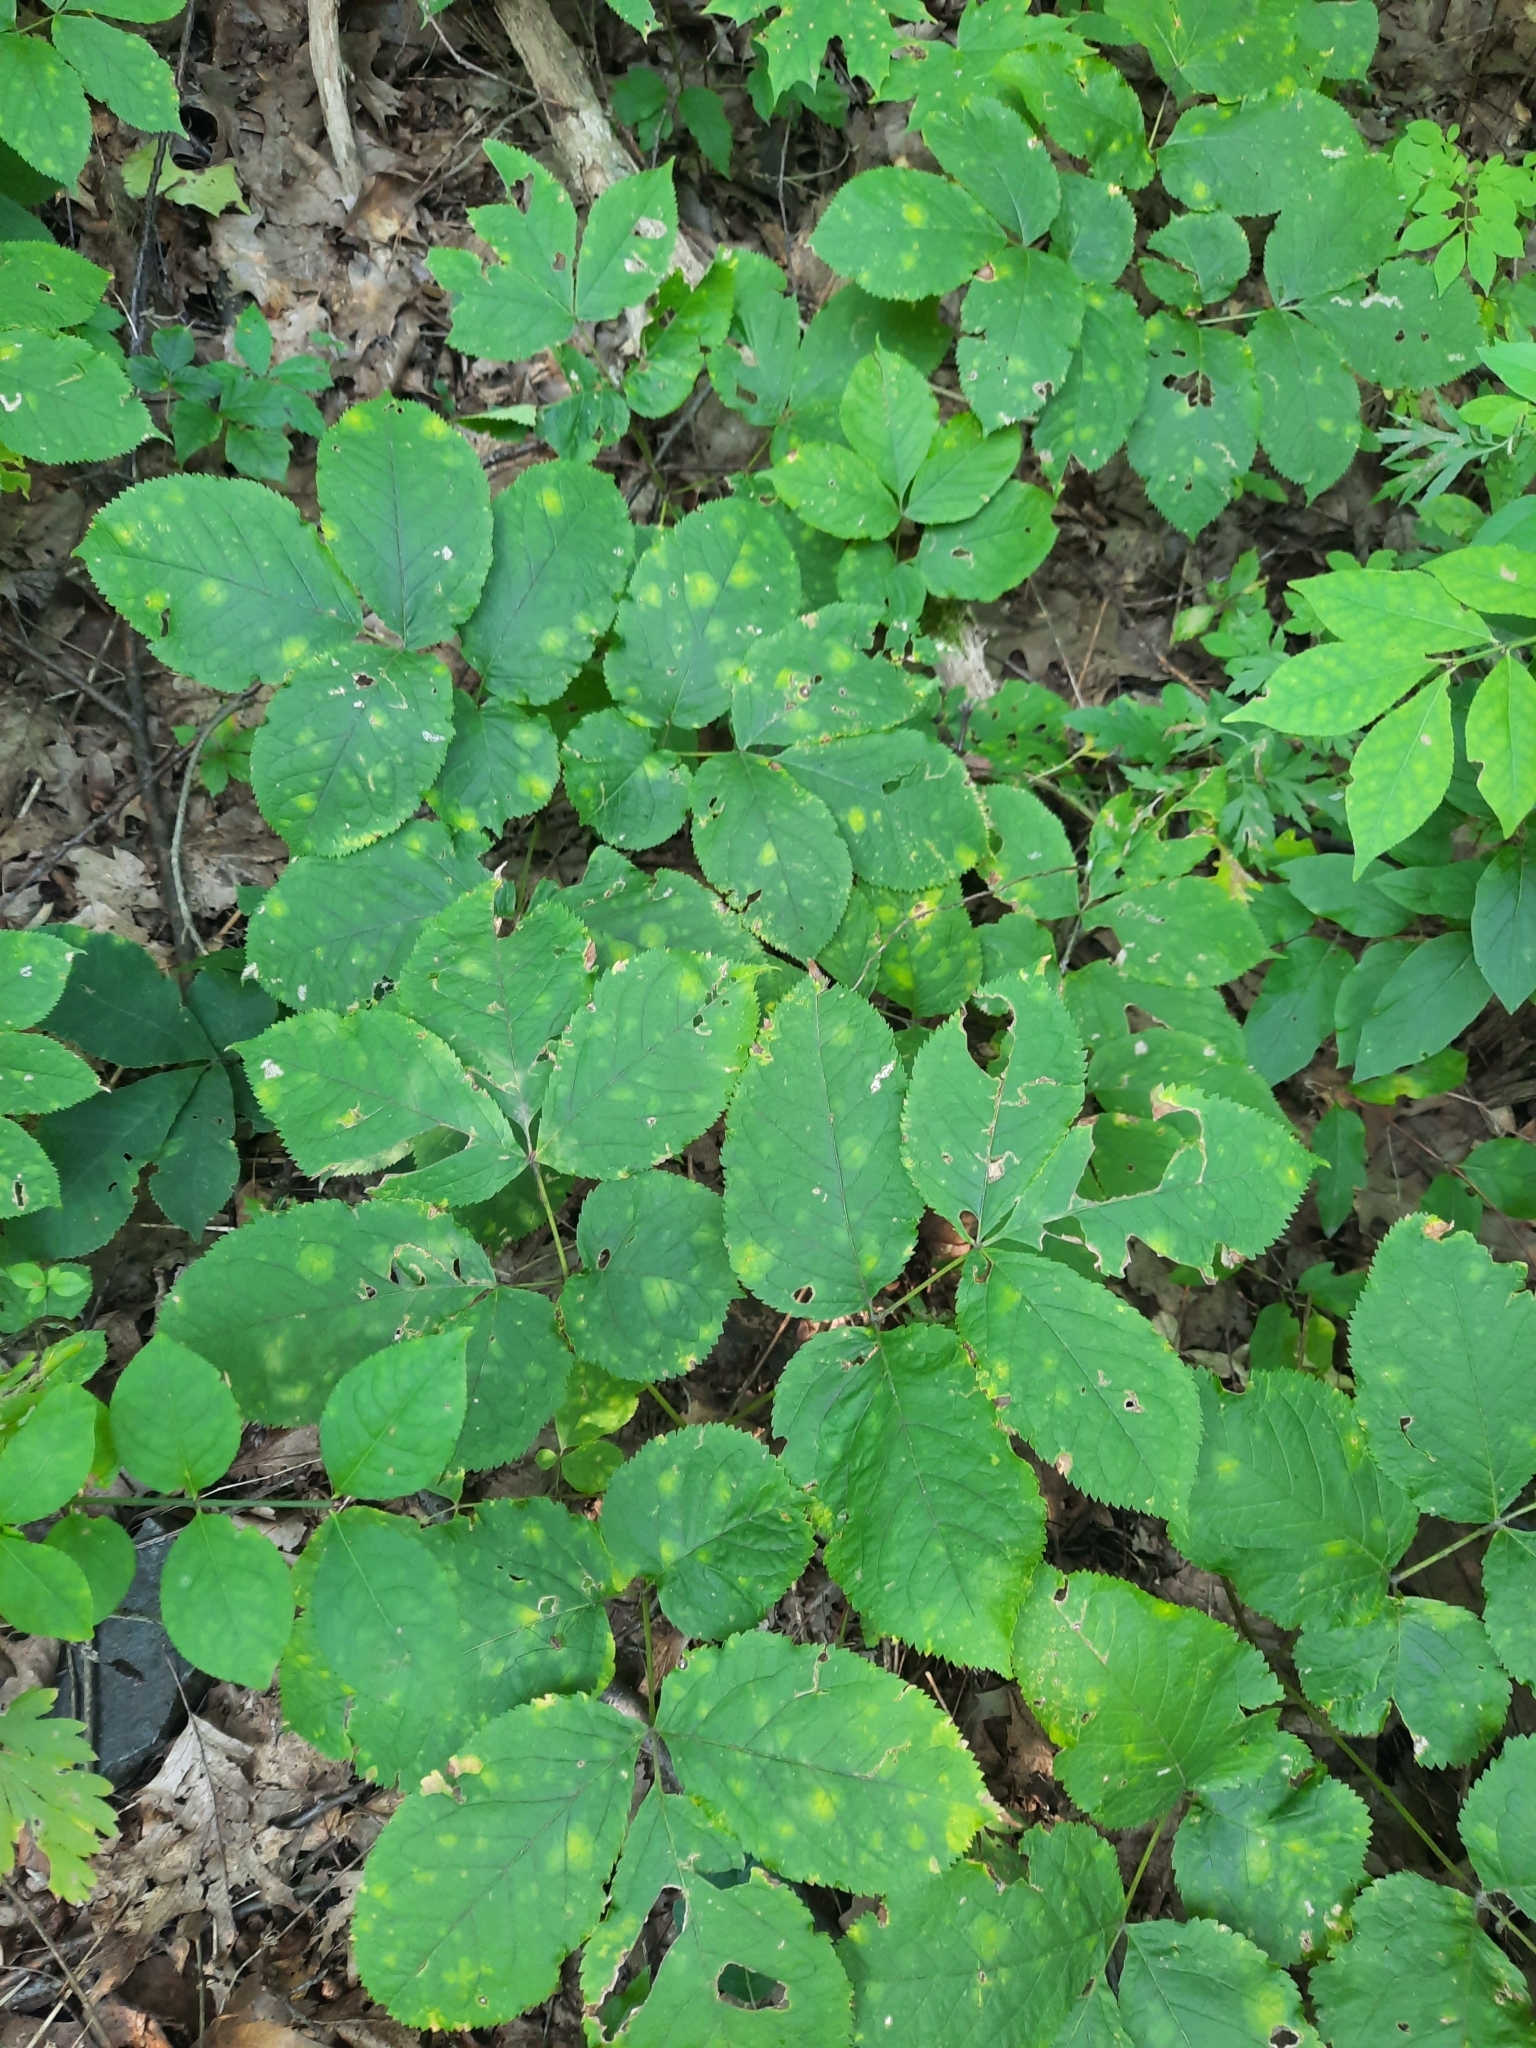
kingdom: Plantae
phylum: Tracheophyta
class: Magnoliopsida
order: Apiales
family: Araliaceae
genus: Aralia
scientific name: Aralia nudicaulis
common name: Wild sarsaparilla
